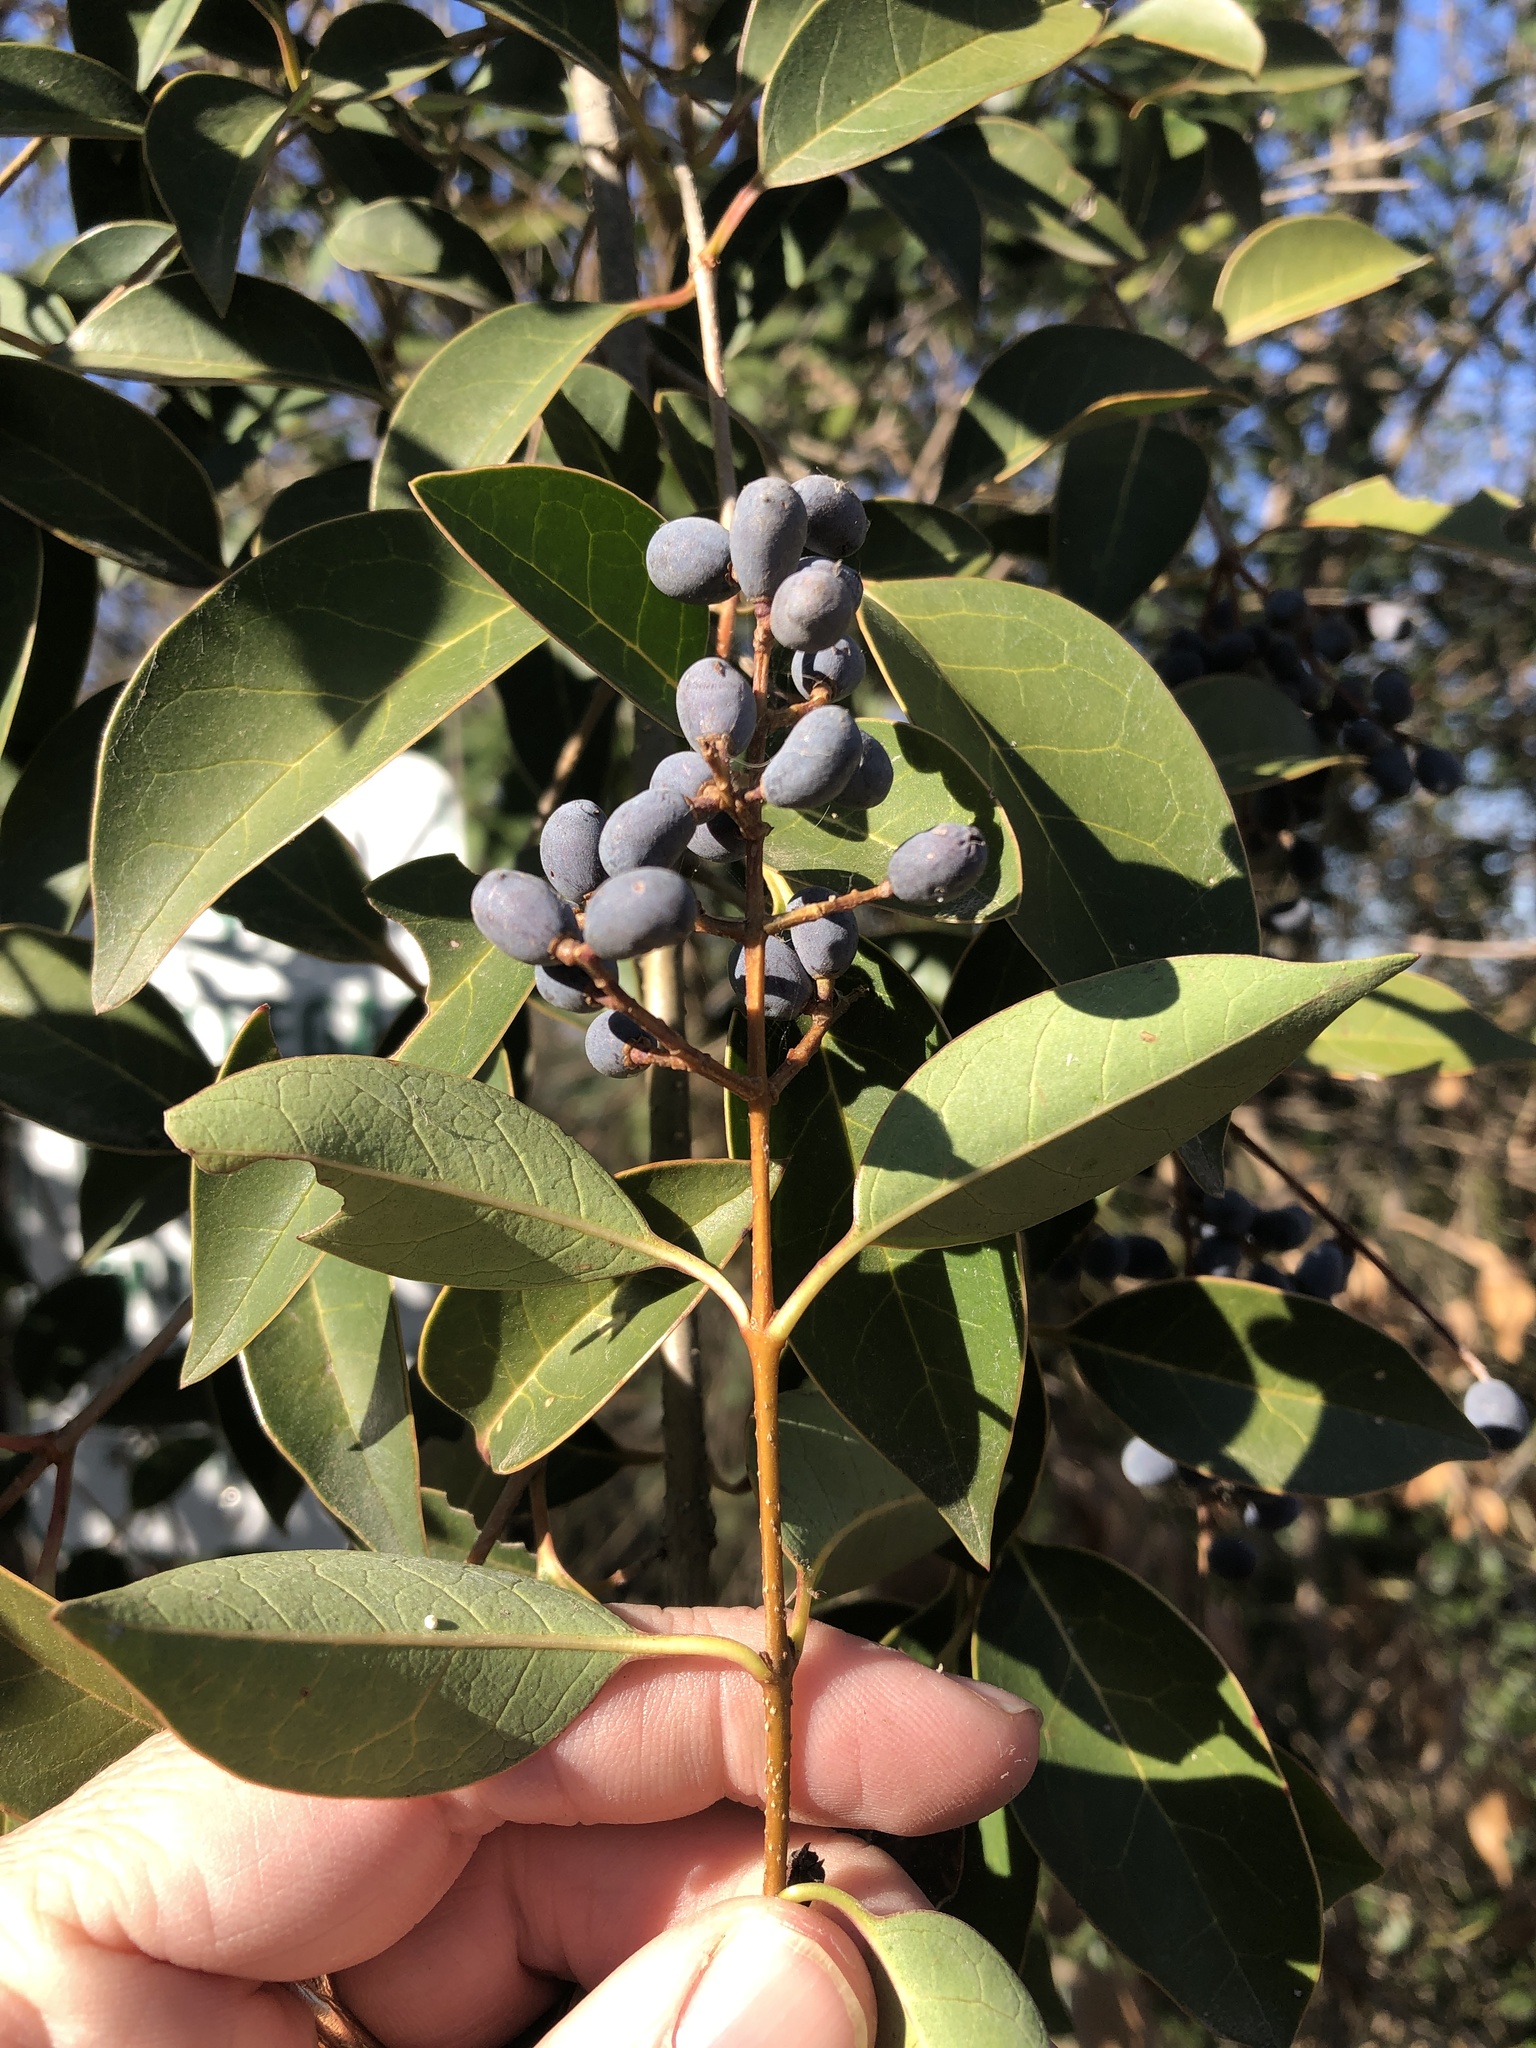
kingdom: Plantae
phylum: Tracheophyta
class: Magnoliopsida
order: Lamiales
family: Oleaceae
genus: Ligustrum
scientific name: Ligustrum lucidum
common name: Glossy privet
